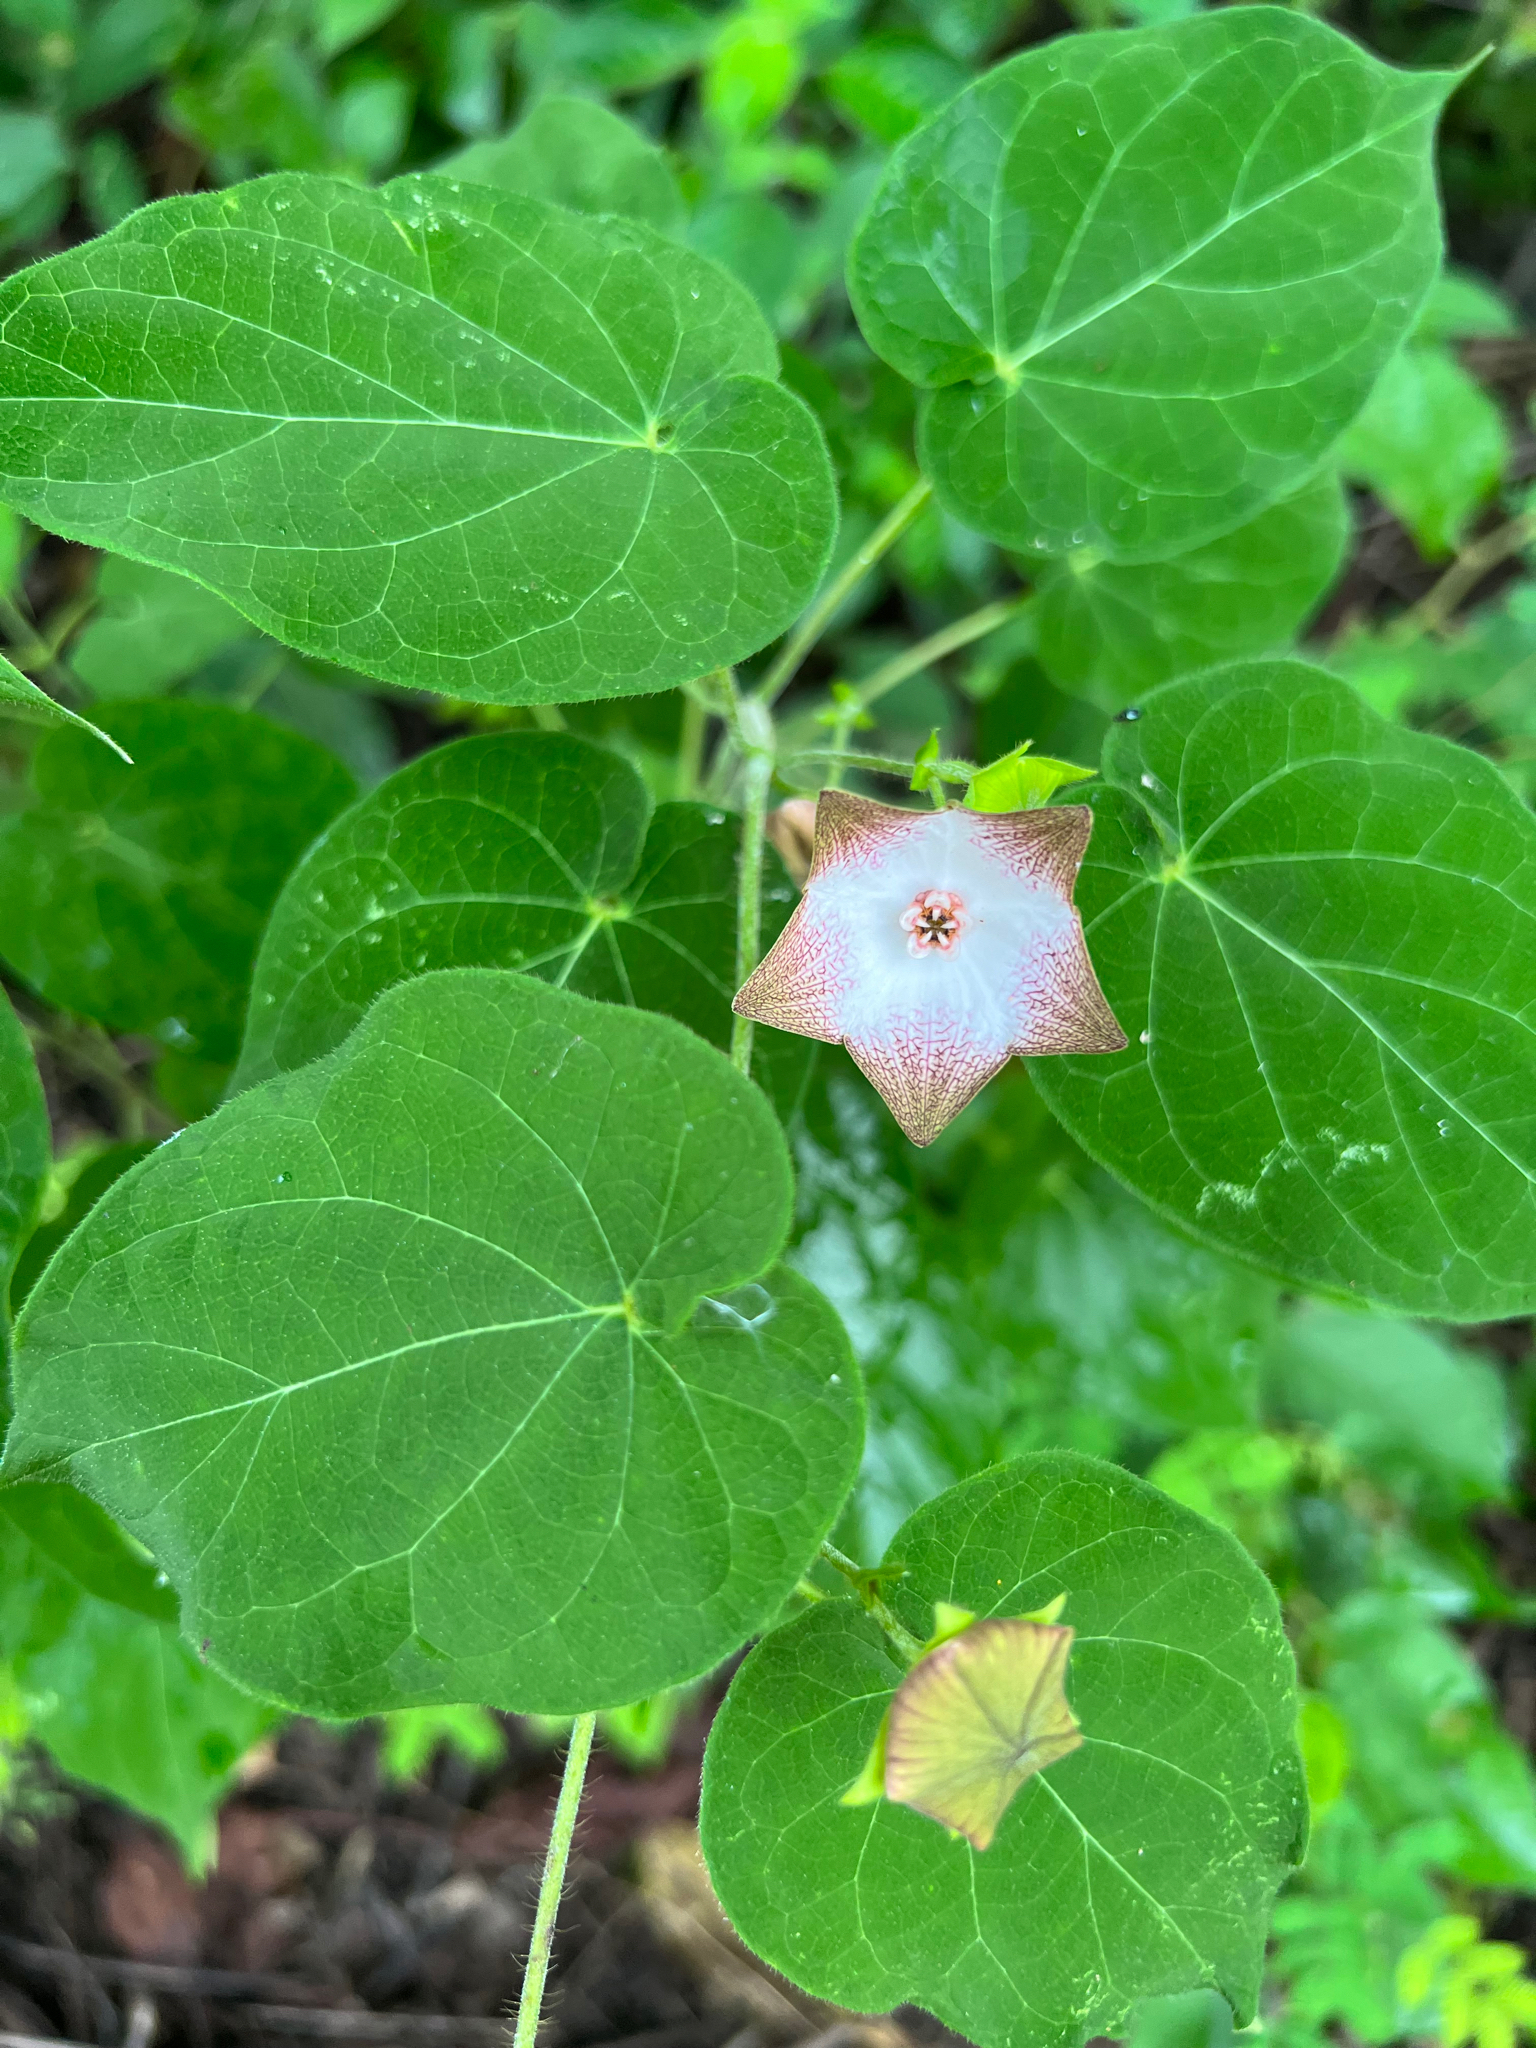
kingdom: Plantae
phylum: Tracheophyta
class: Magnoliopsida
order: Gentianales
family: Apocynaceae
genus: Polystemma
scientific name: Polystemma guatemalense
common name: Arborescente rattan
